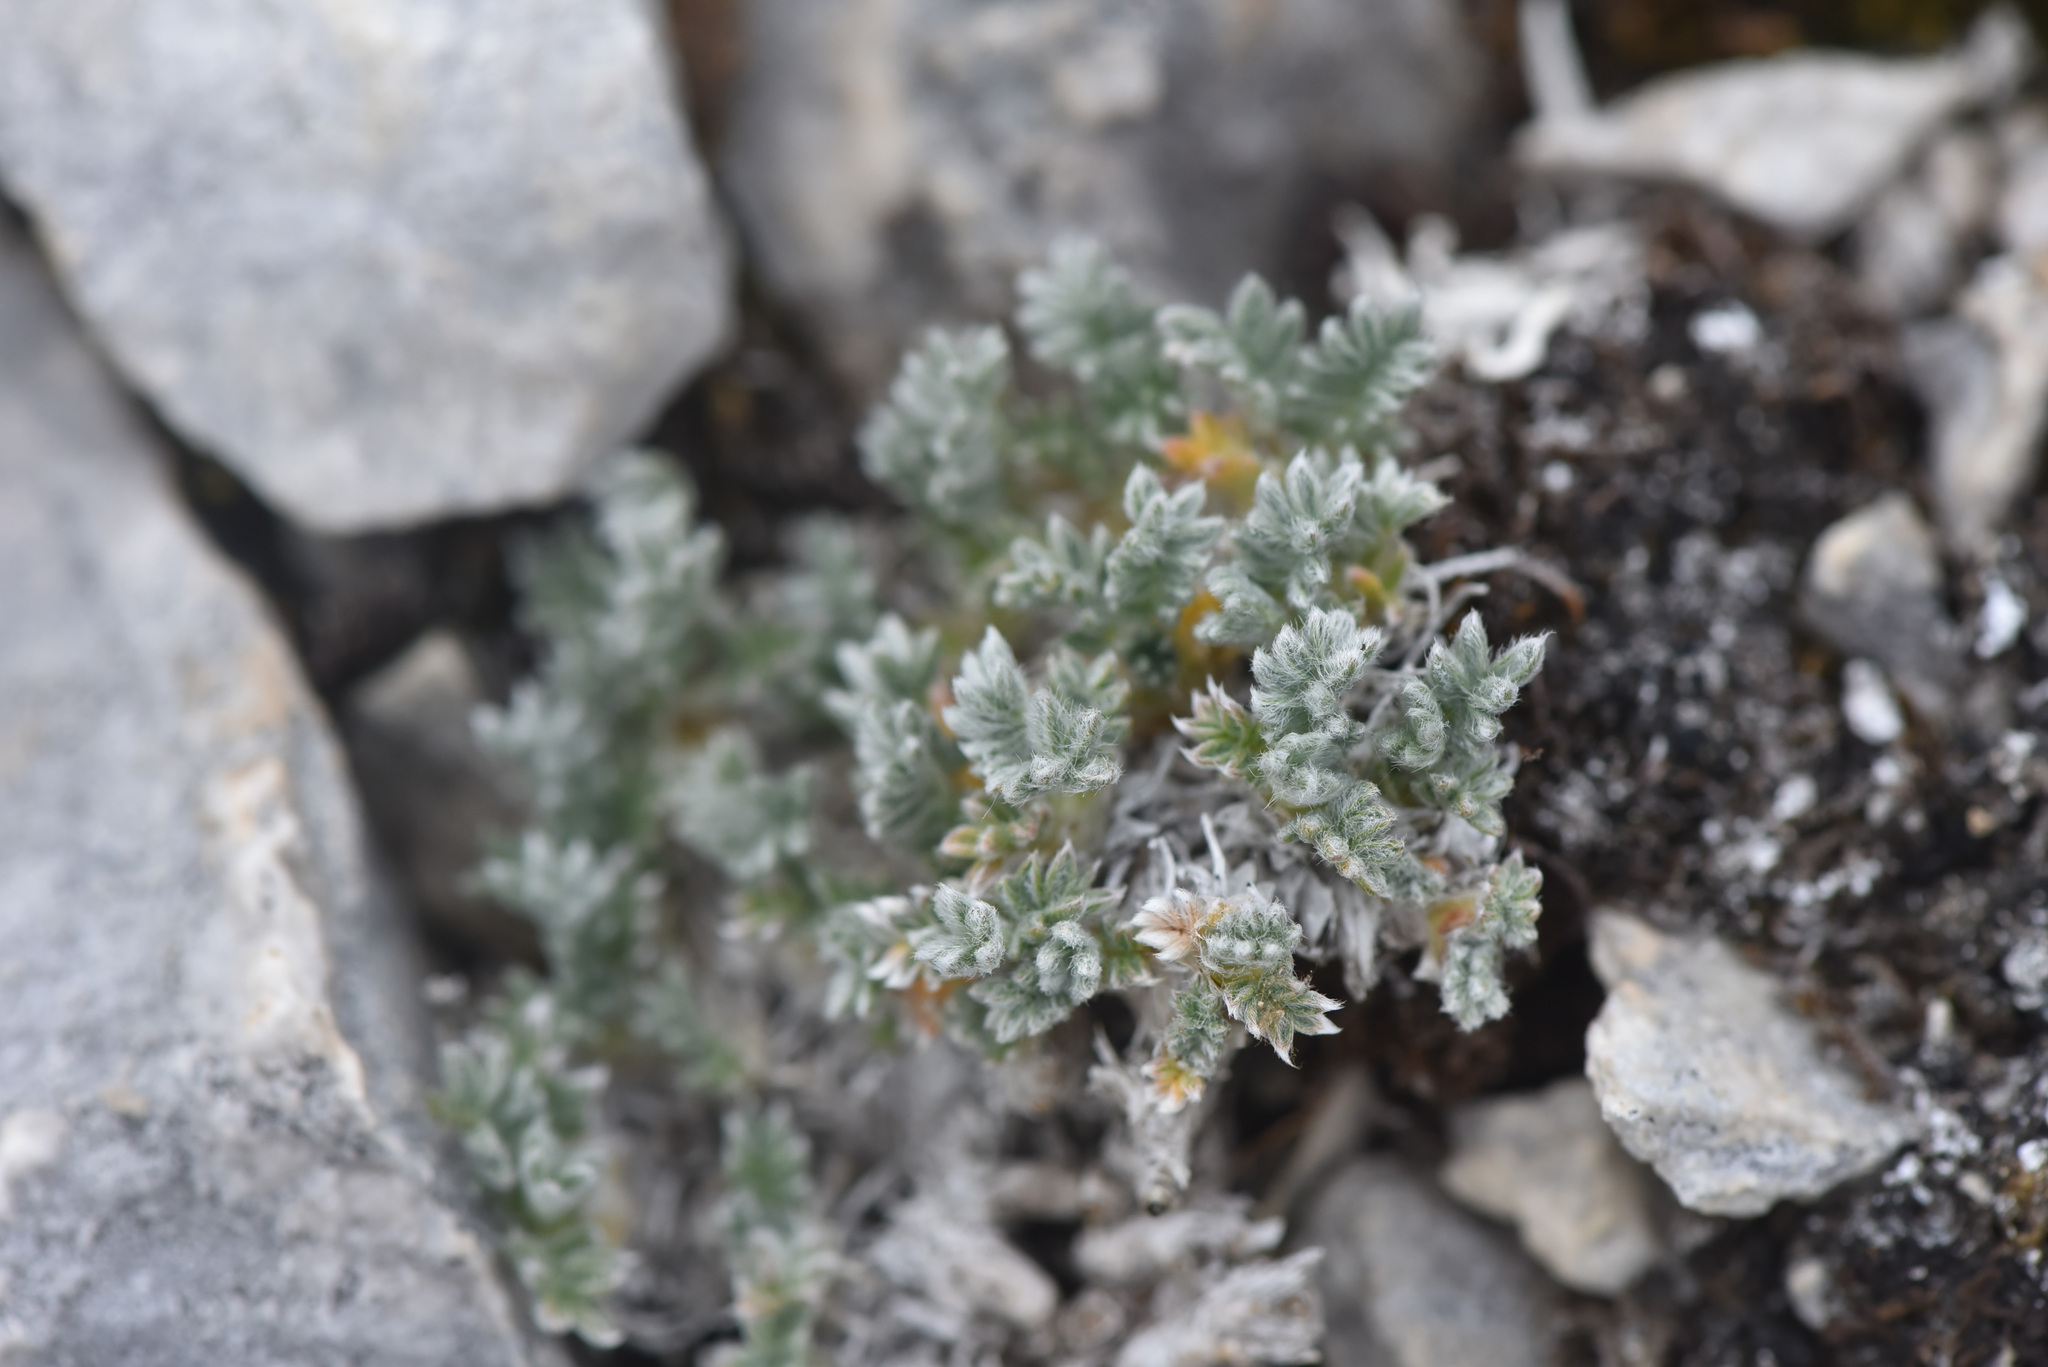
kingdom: Plantae
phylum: Tracheophyta
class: Magnoliopsida
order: Fabales
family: Fabaceae
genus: Oxytropis
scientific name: Oxytropis podocarpa
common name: Gray's oxytrope
